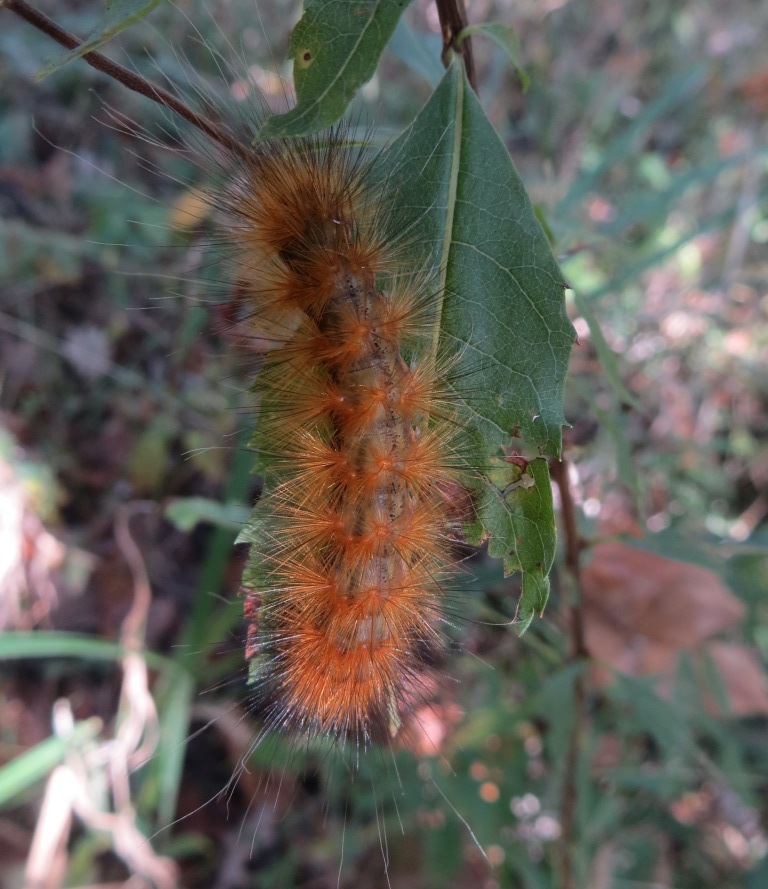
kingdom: Animalia
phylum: Arthropoda
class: Insecta
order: Lepidoptera
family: Erebidae
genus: Spilosoma
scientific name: Spilosoma virginica
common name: Virginia tiger moth
